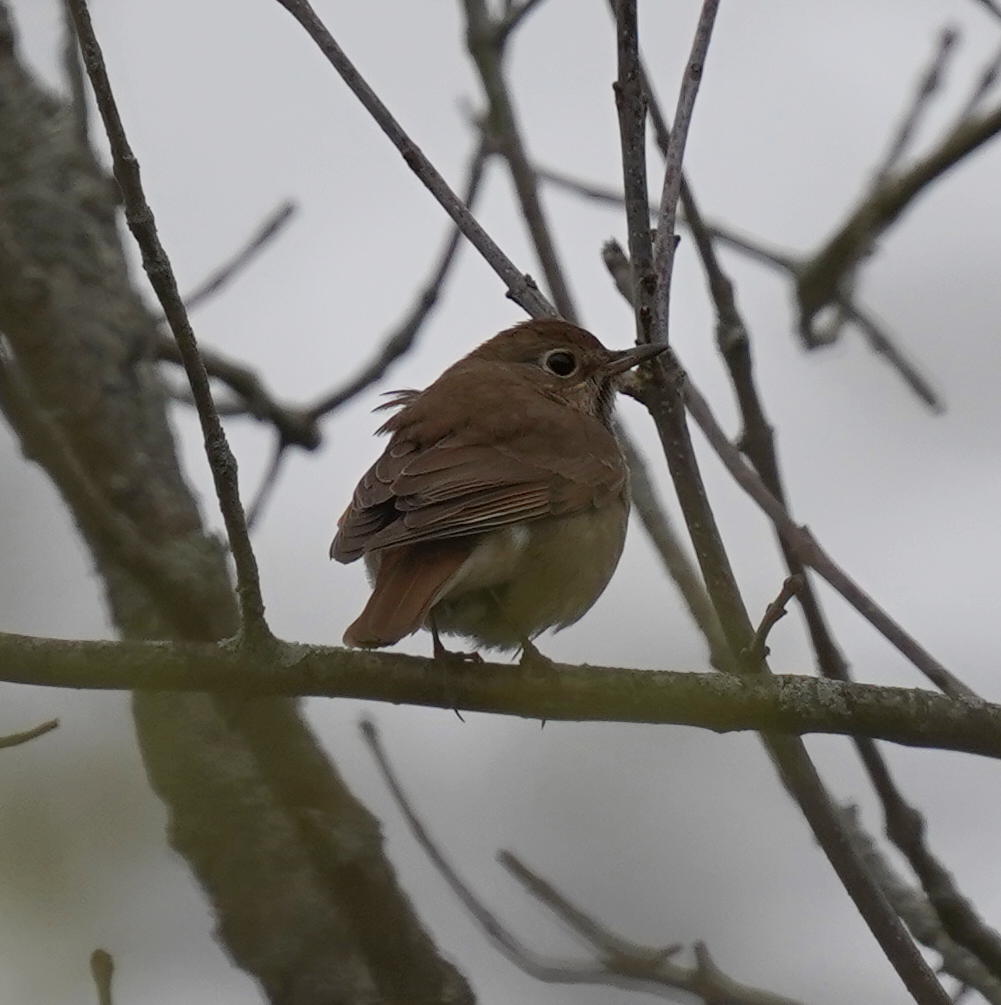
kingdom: Animalia
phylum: Chordata
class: Aves
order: Passeriformes
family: Turdidae
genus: Catharus
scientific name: Catharus guttatus
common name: Hermit thrush
